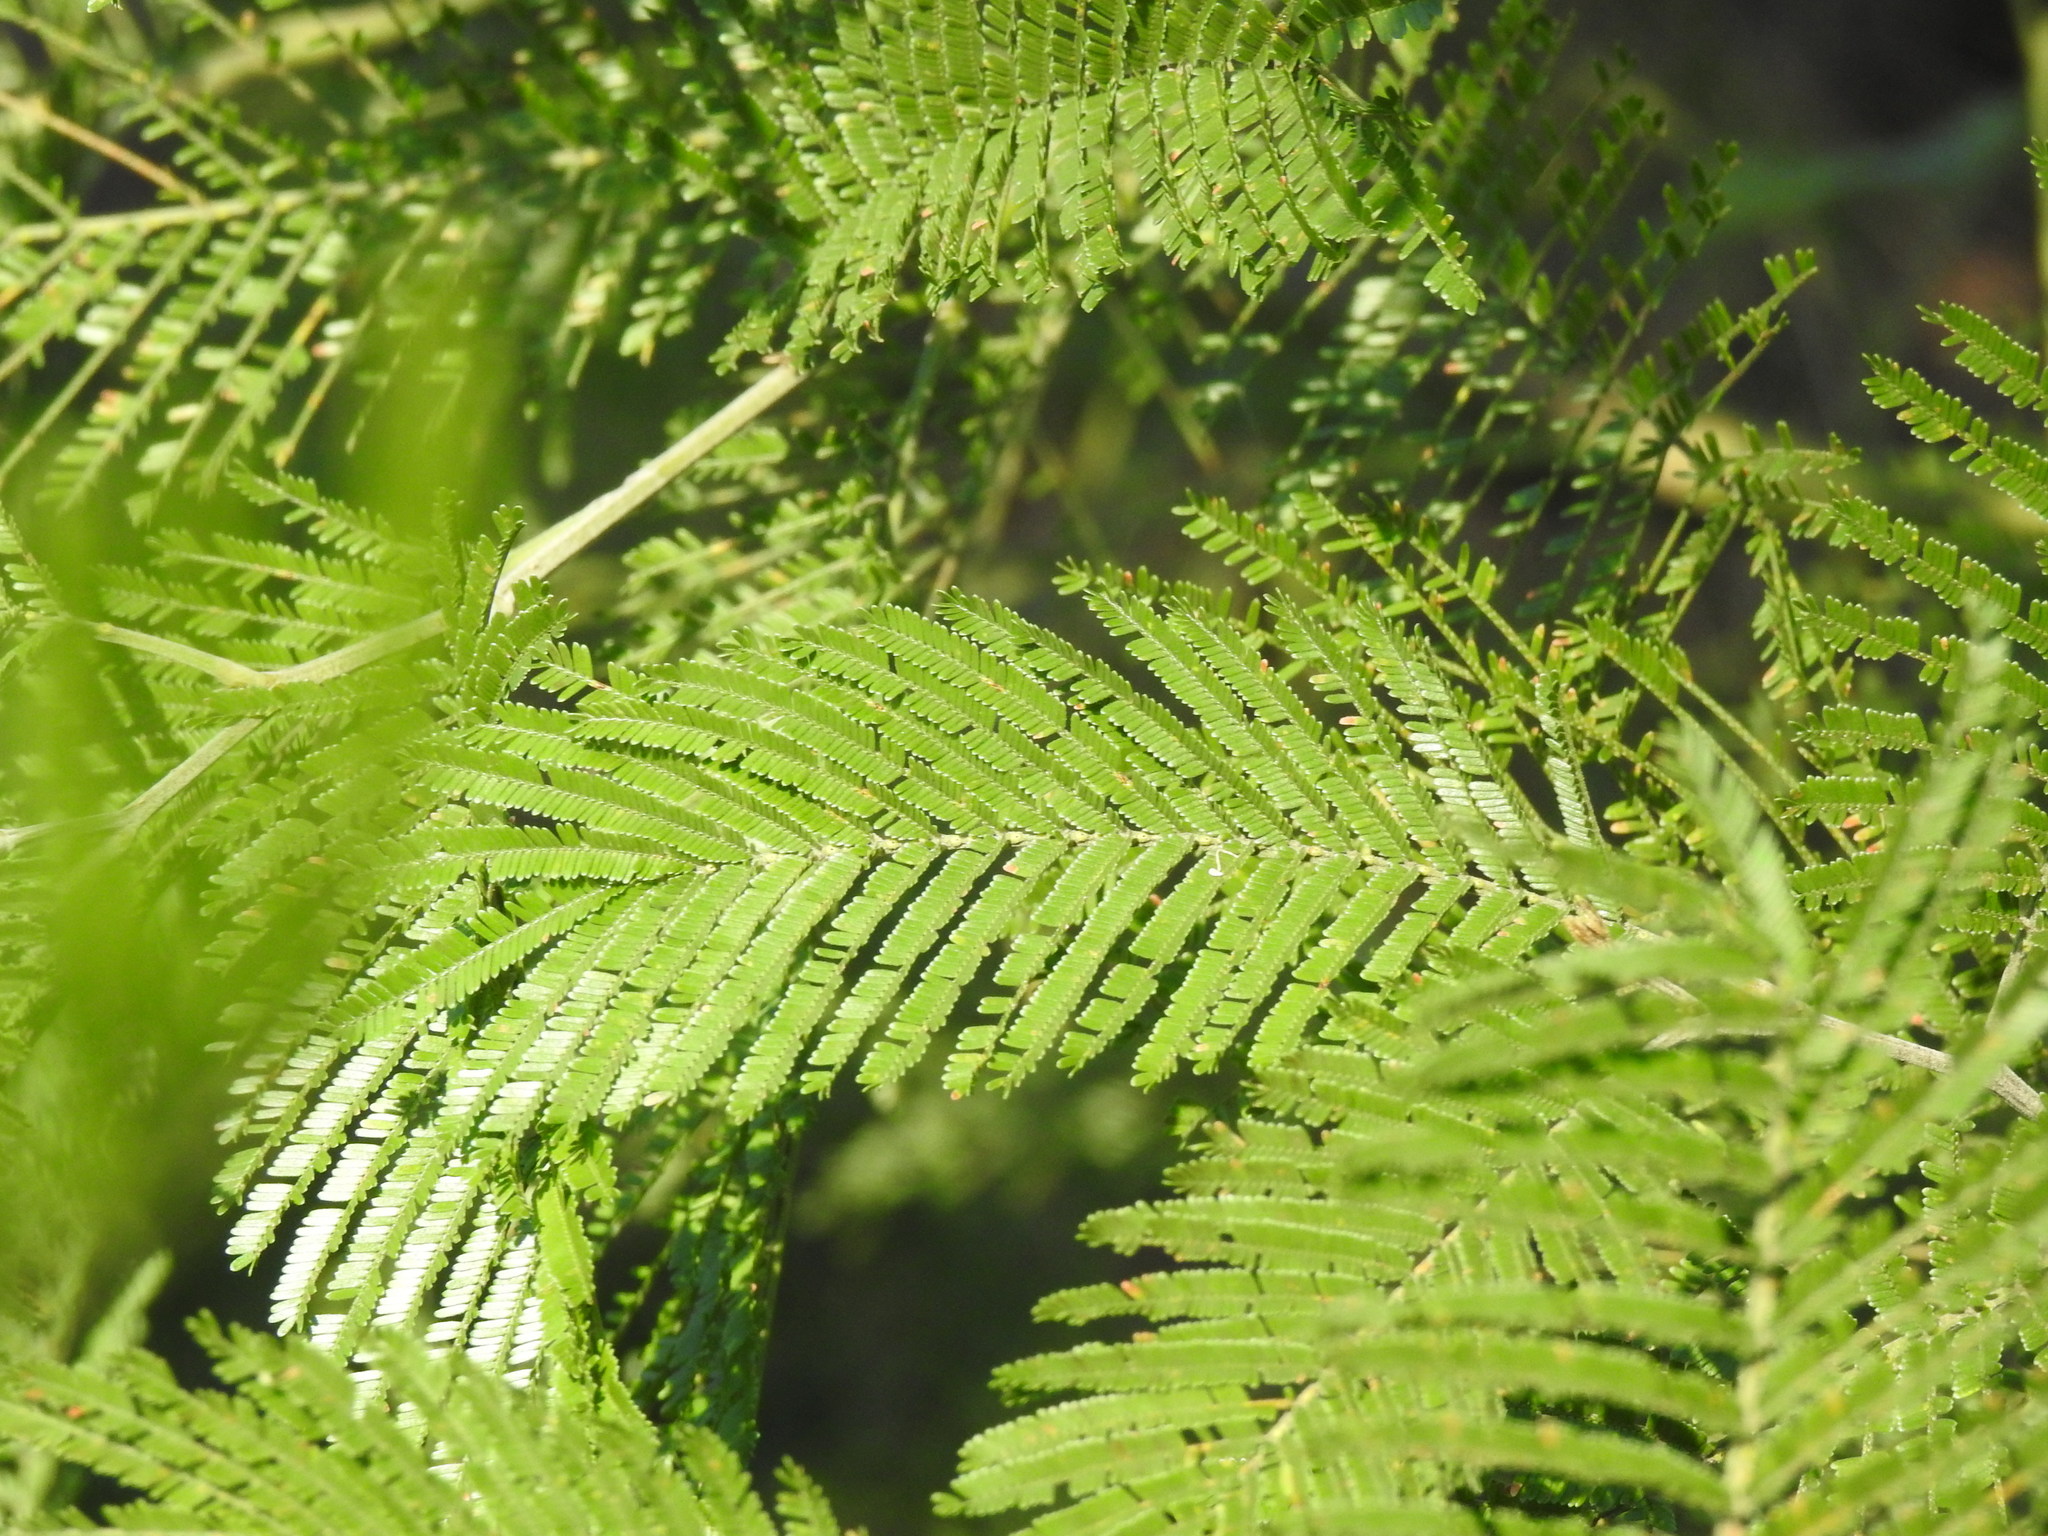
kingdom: Plantae
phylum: Tracheophyta
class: Magnoliopsida
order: Fabales
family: Fabaceae
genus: Acacia
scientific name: Acacia mearnsii
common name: Black wattle
